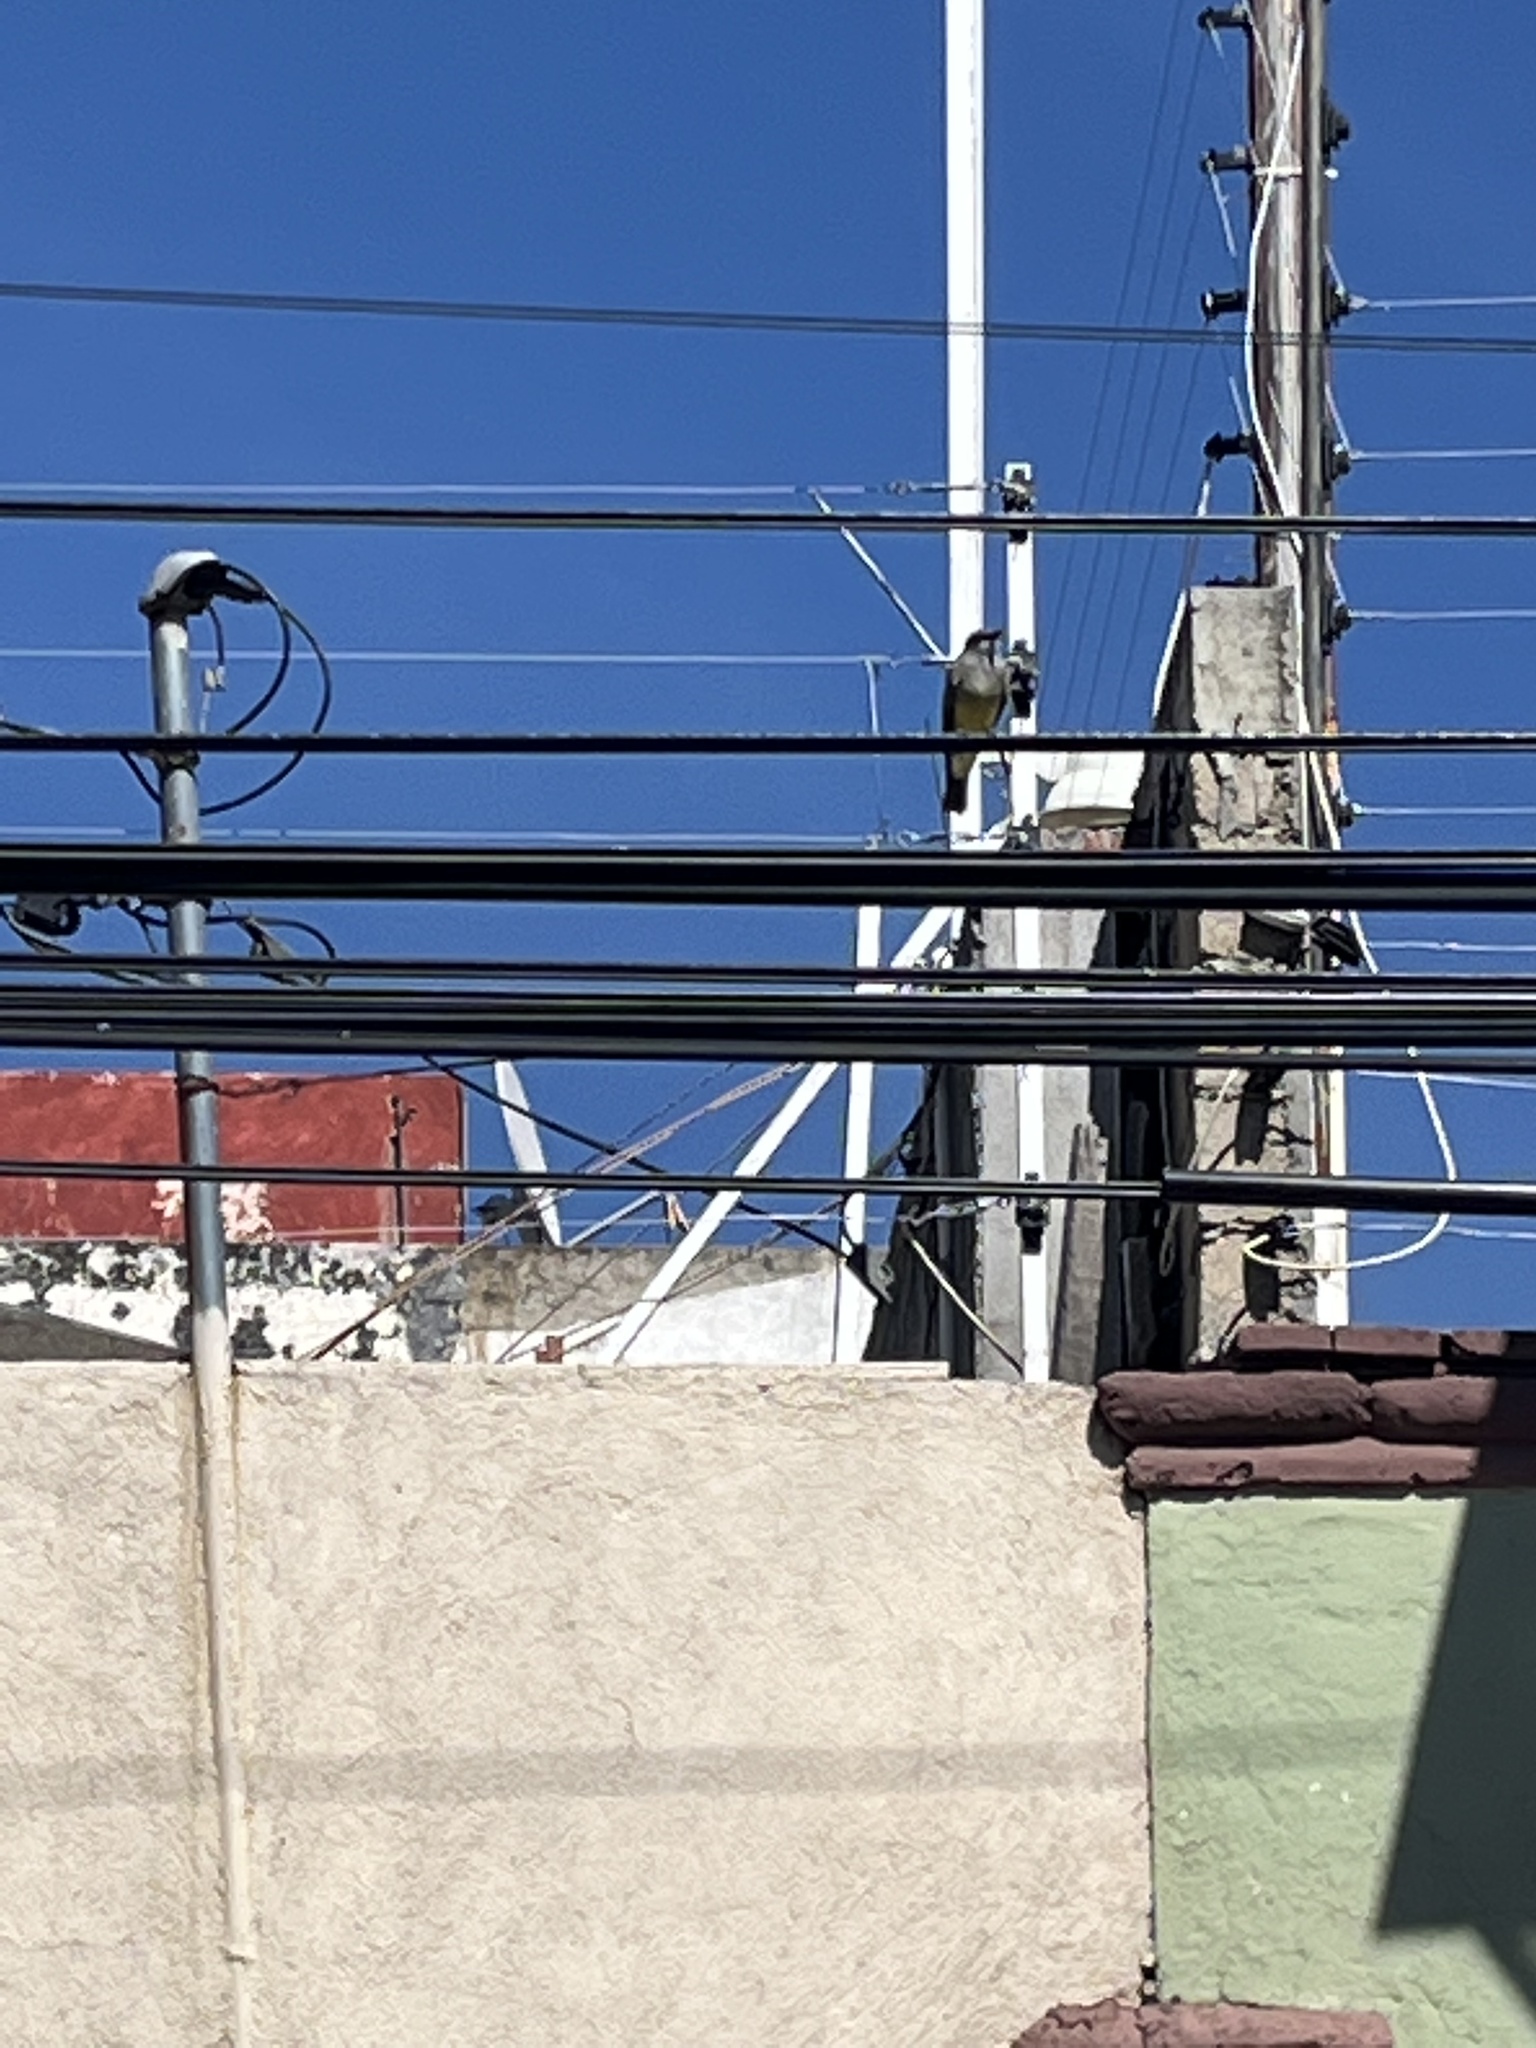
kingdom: Animalia
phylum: Chordata
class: Aves
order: Passeriformes
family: Tyrannidae
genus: Tyrannus
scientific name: Tyrannus vociferans
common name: Cassin's kingbird
